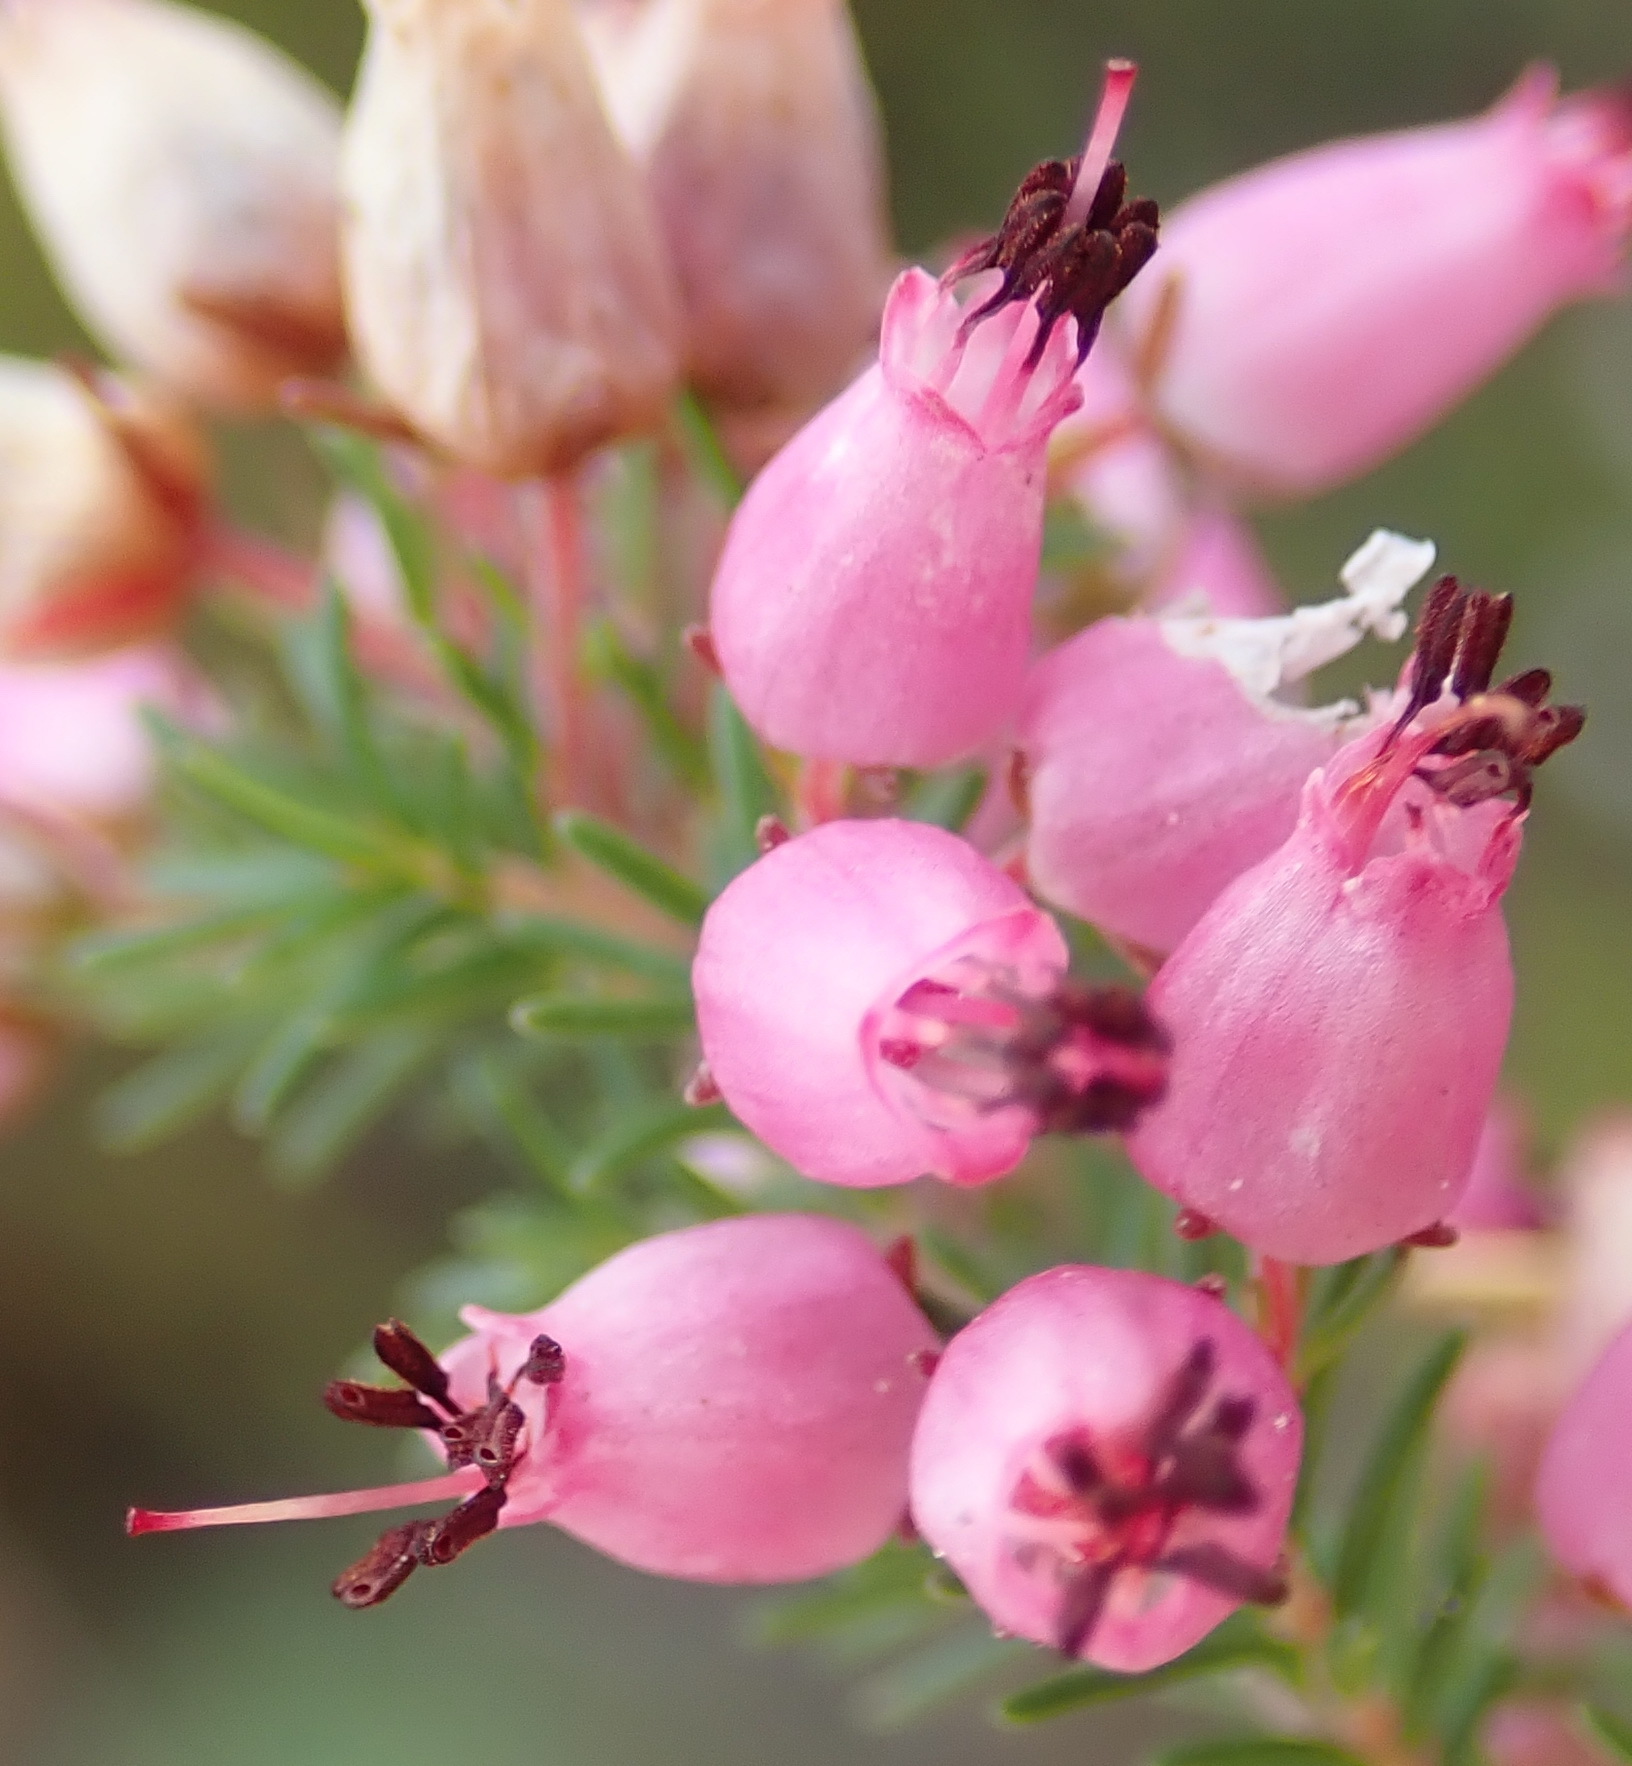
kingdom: Plantae
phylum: Tracheophyta
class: Magnoliopsida
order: Ericales
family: Ericaceae
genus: Erica
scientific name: Erica nutans
